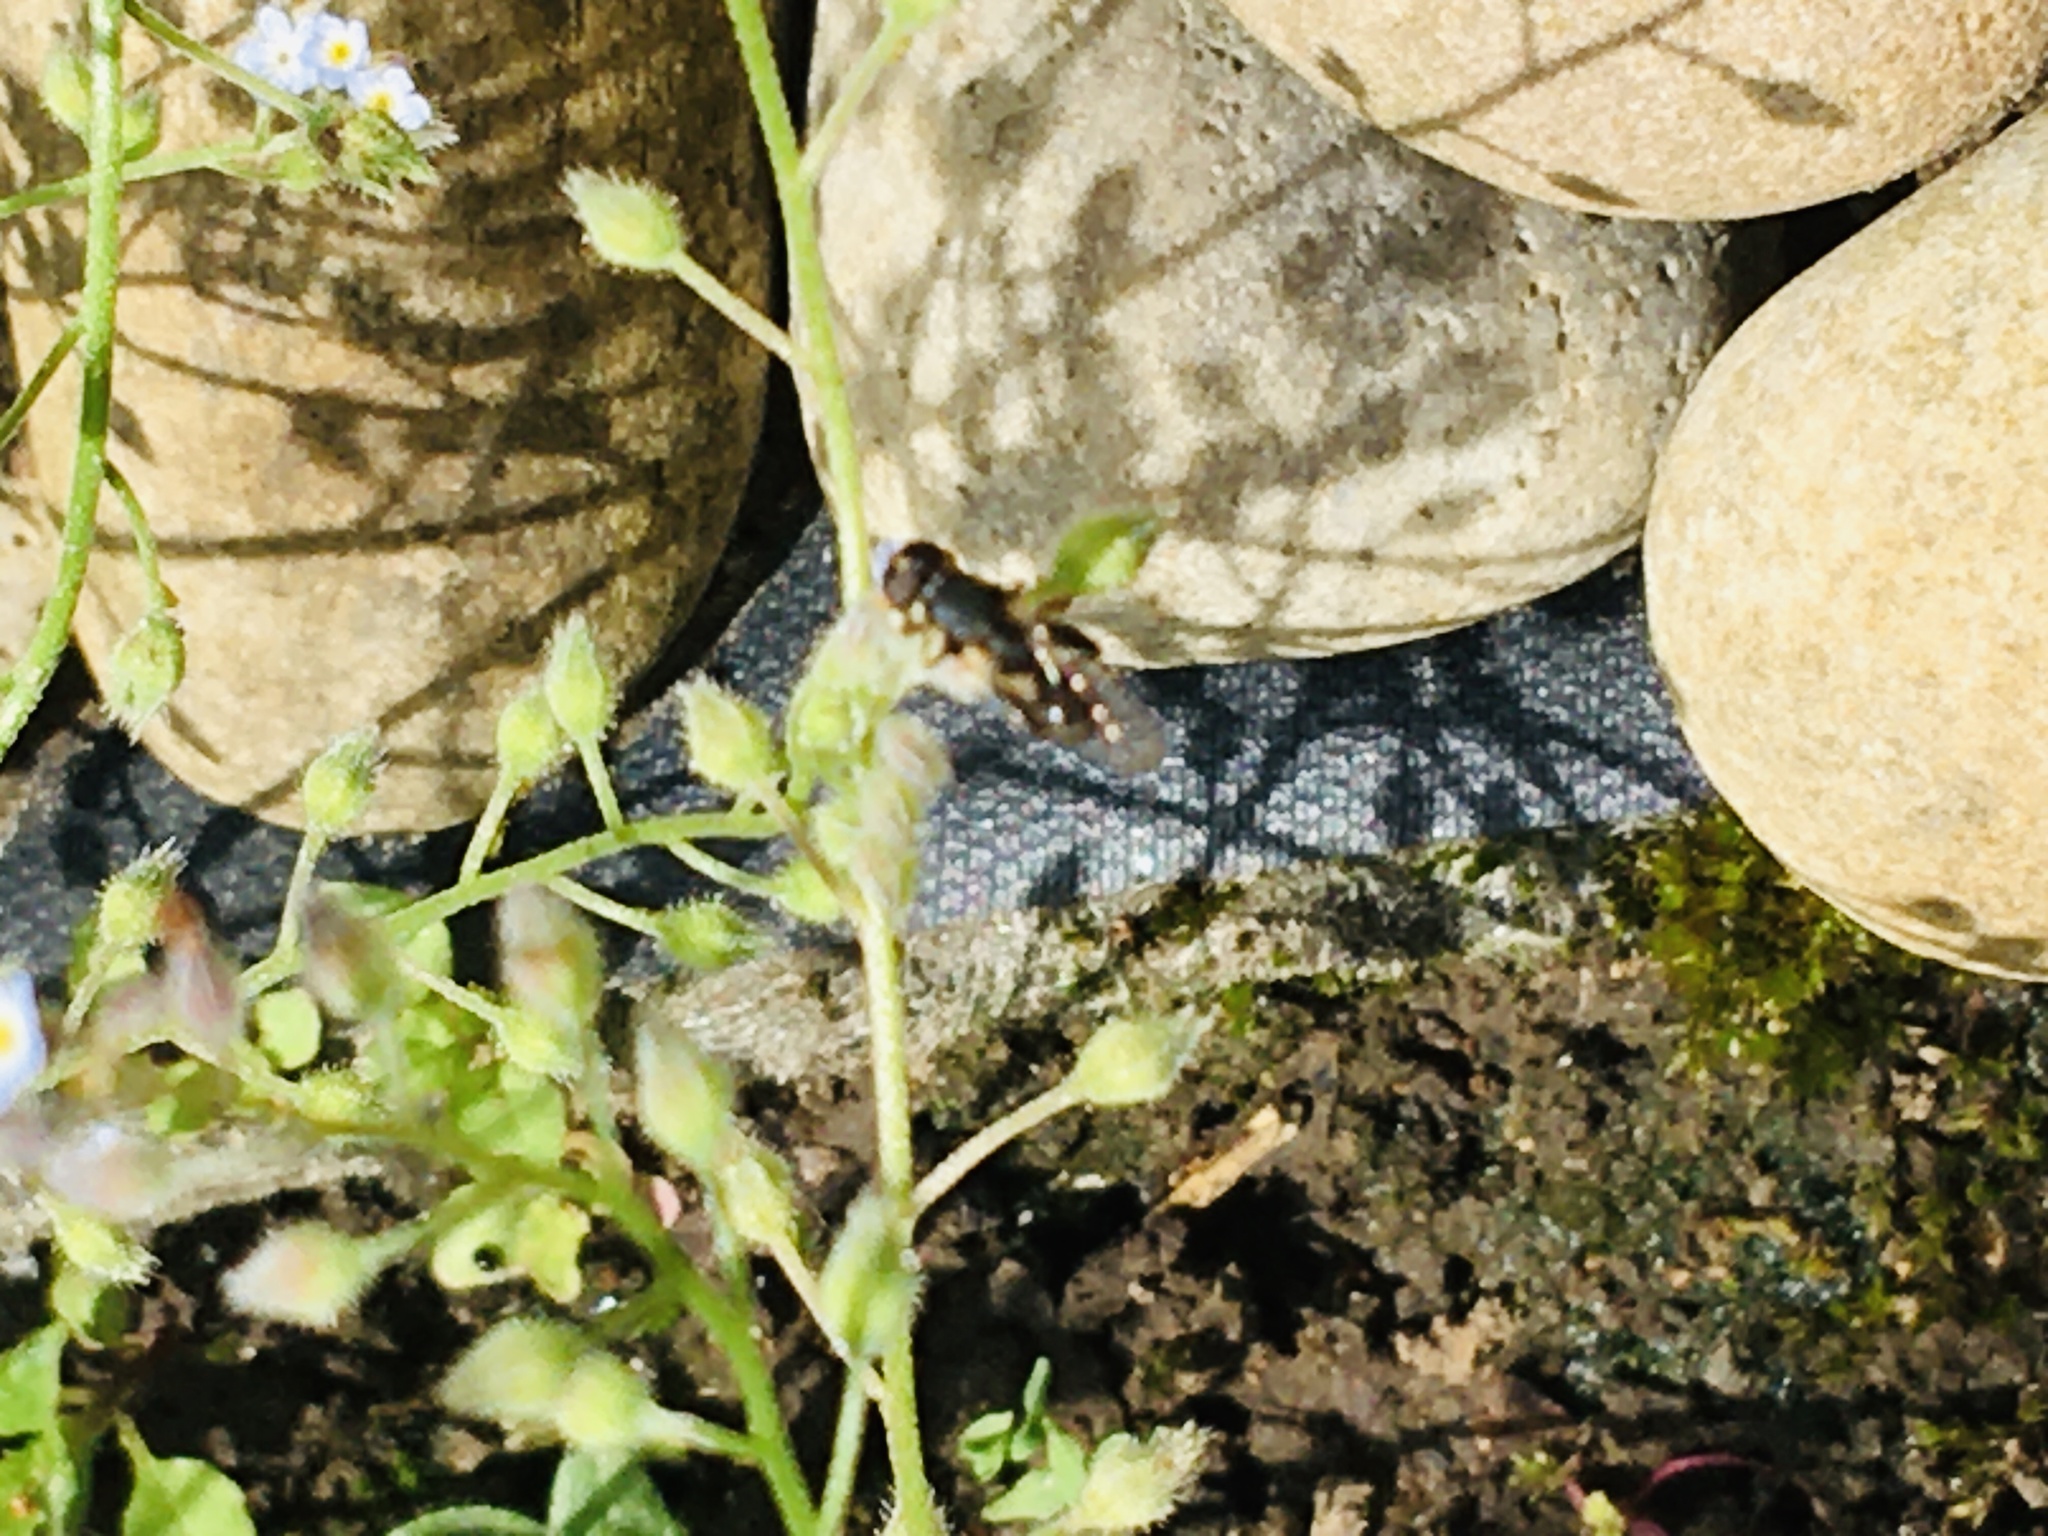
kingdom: Animalia
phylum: Arthropoda
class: Insecta
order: Diptera
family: Syrphidae
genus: Syritta
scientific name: Syritta pipiens
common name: Hover fly
